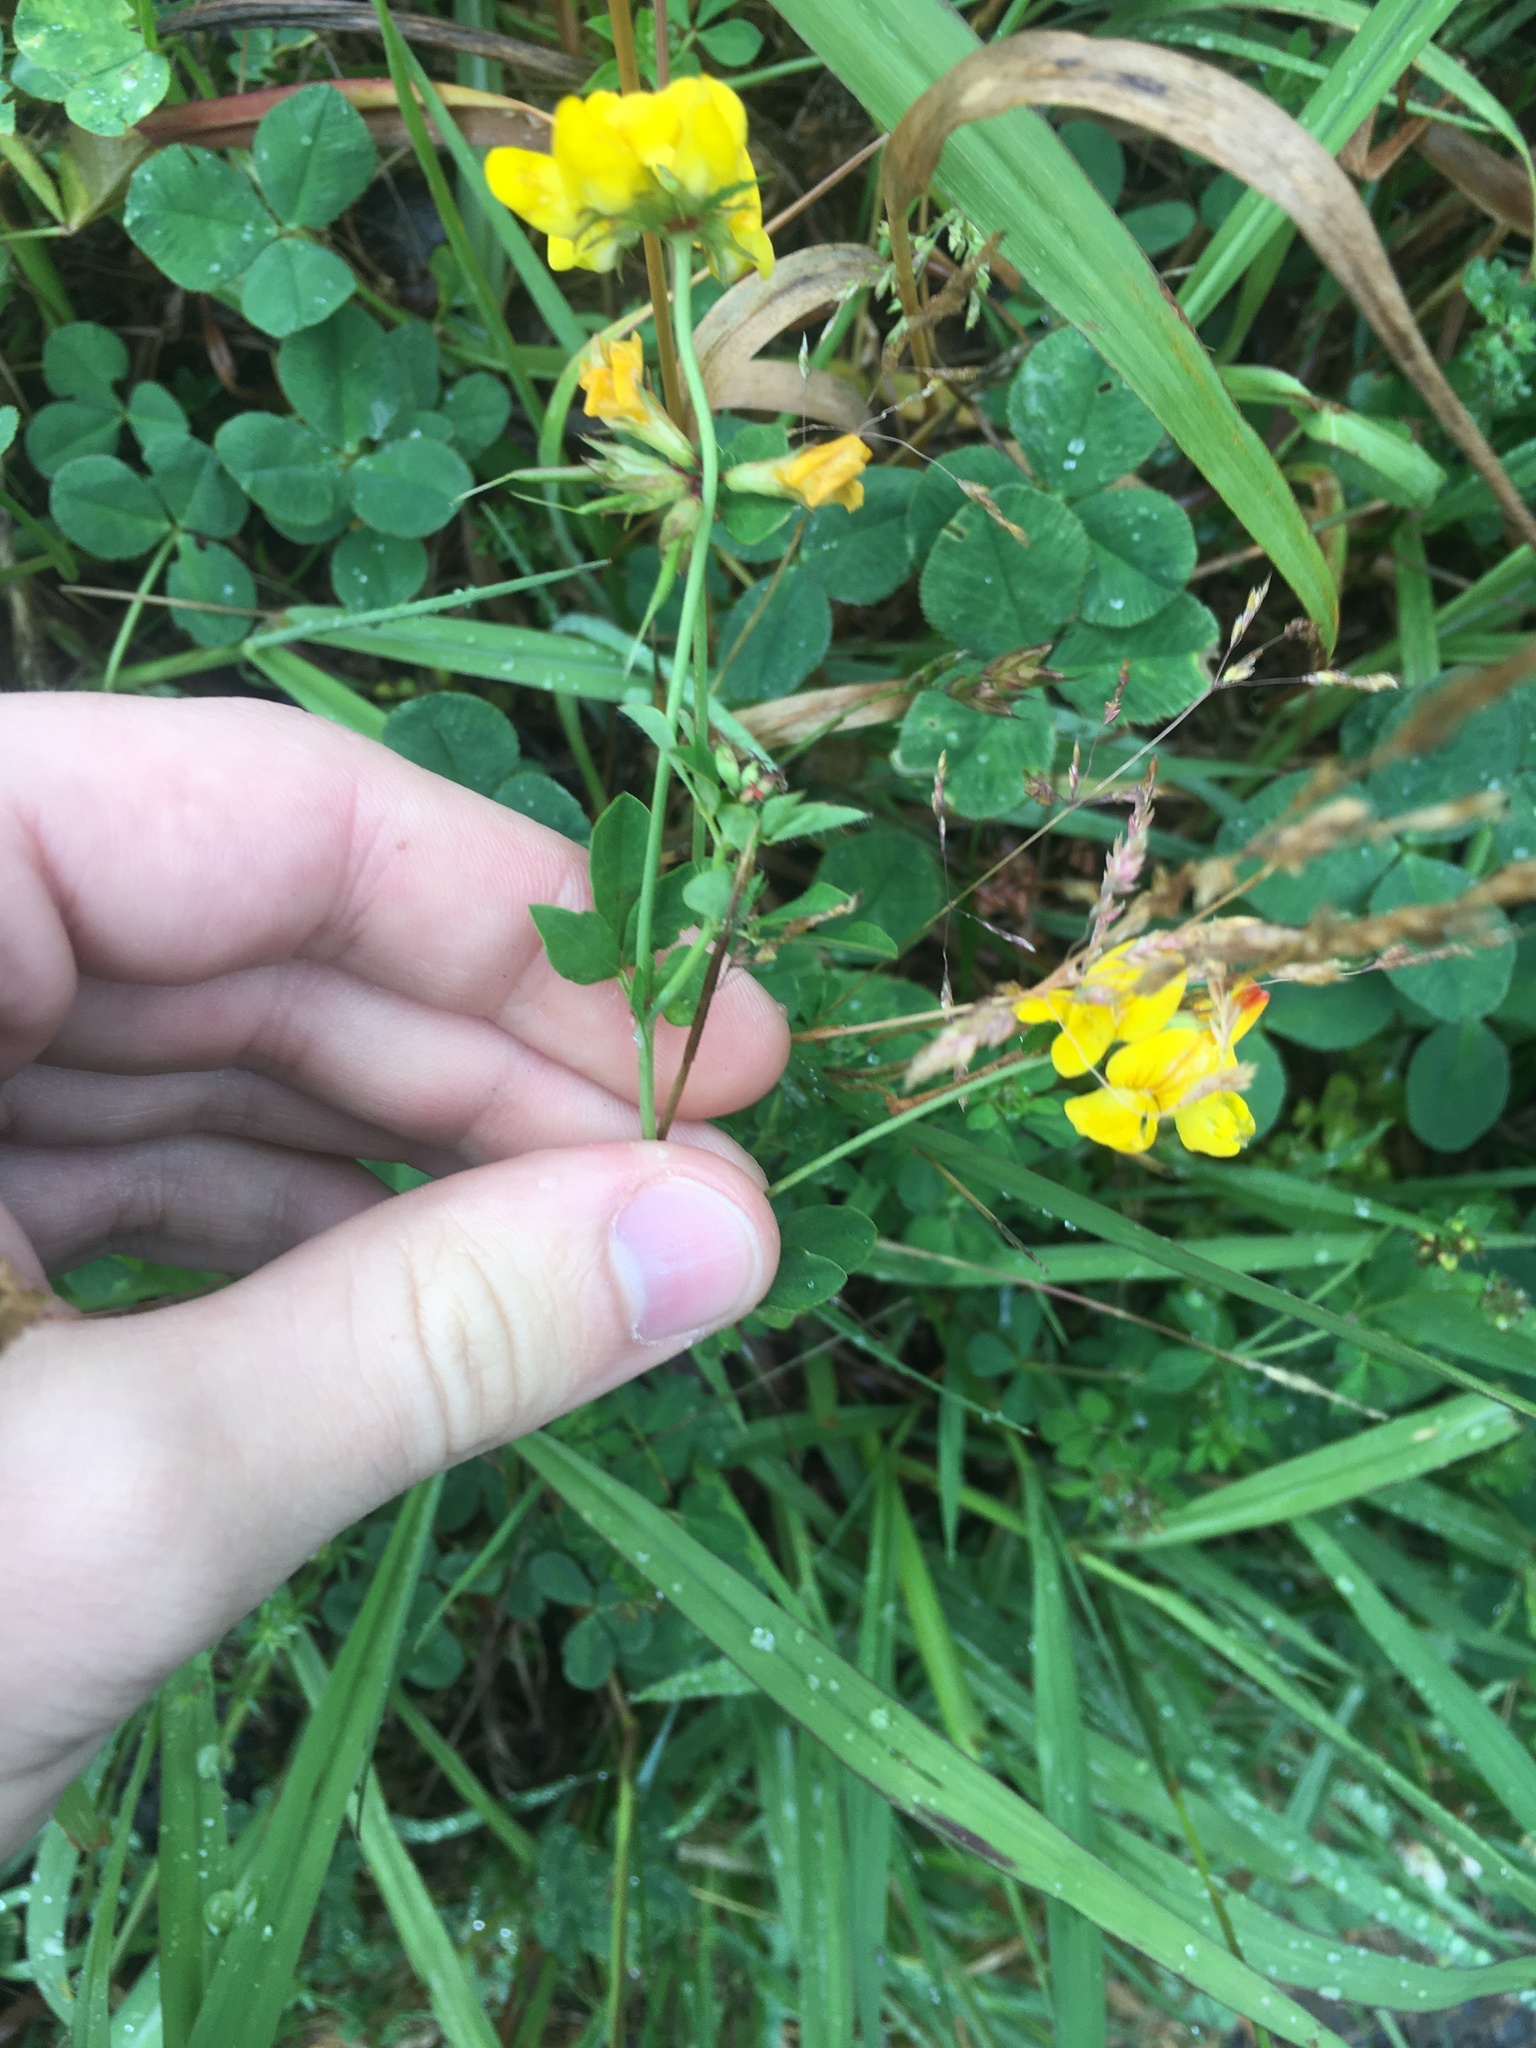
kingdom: Plantae
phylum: Tracheophyta
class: Magnoliopsida
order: Fabales
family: Fabaceae
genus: Lotus
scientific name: Lotus pedunculatus
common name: Greater birdsfoot-trefoil
